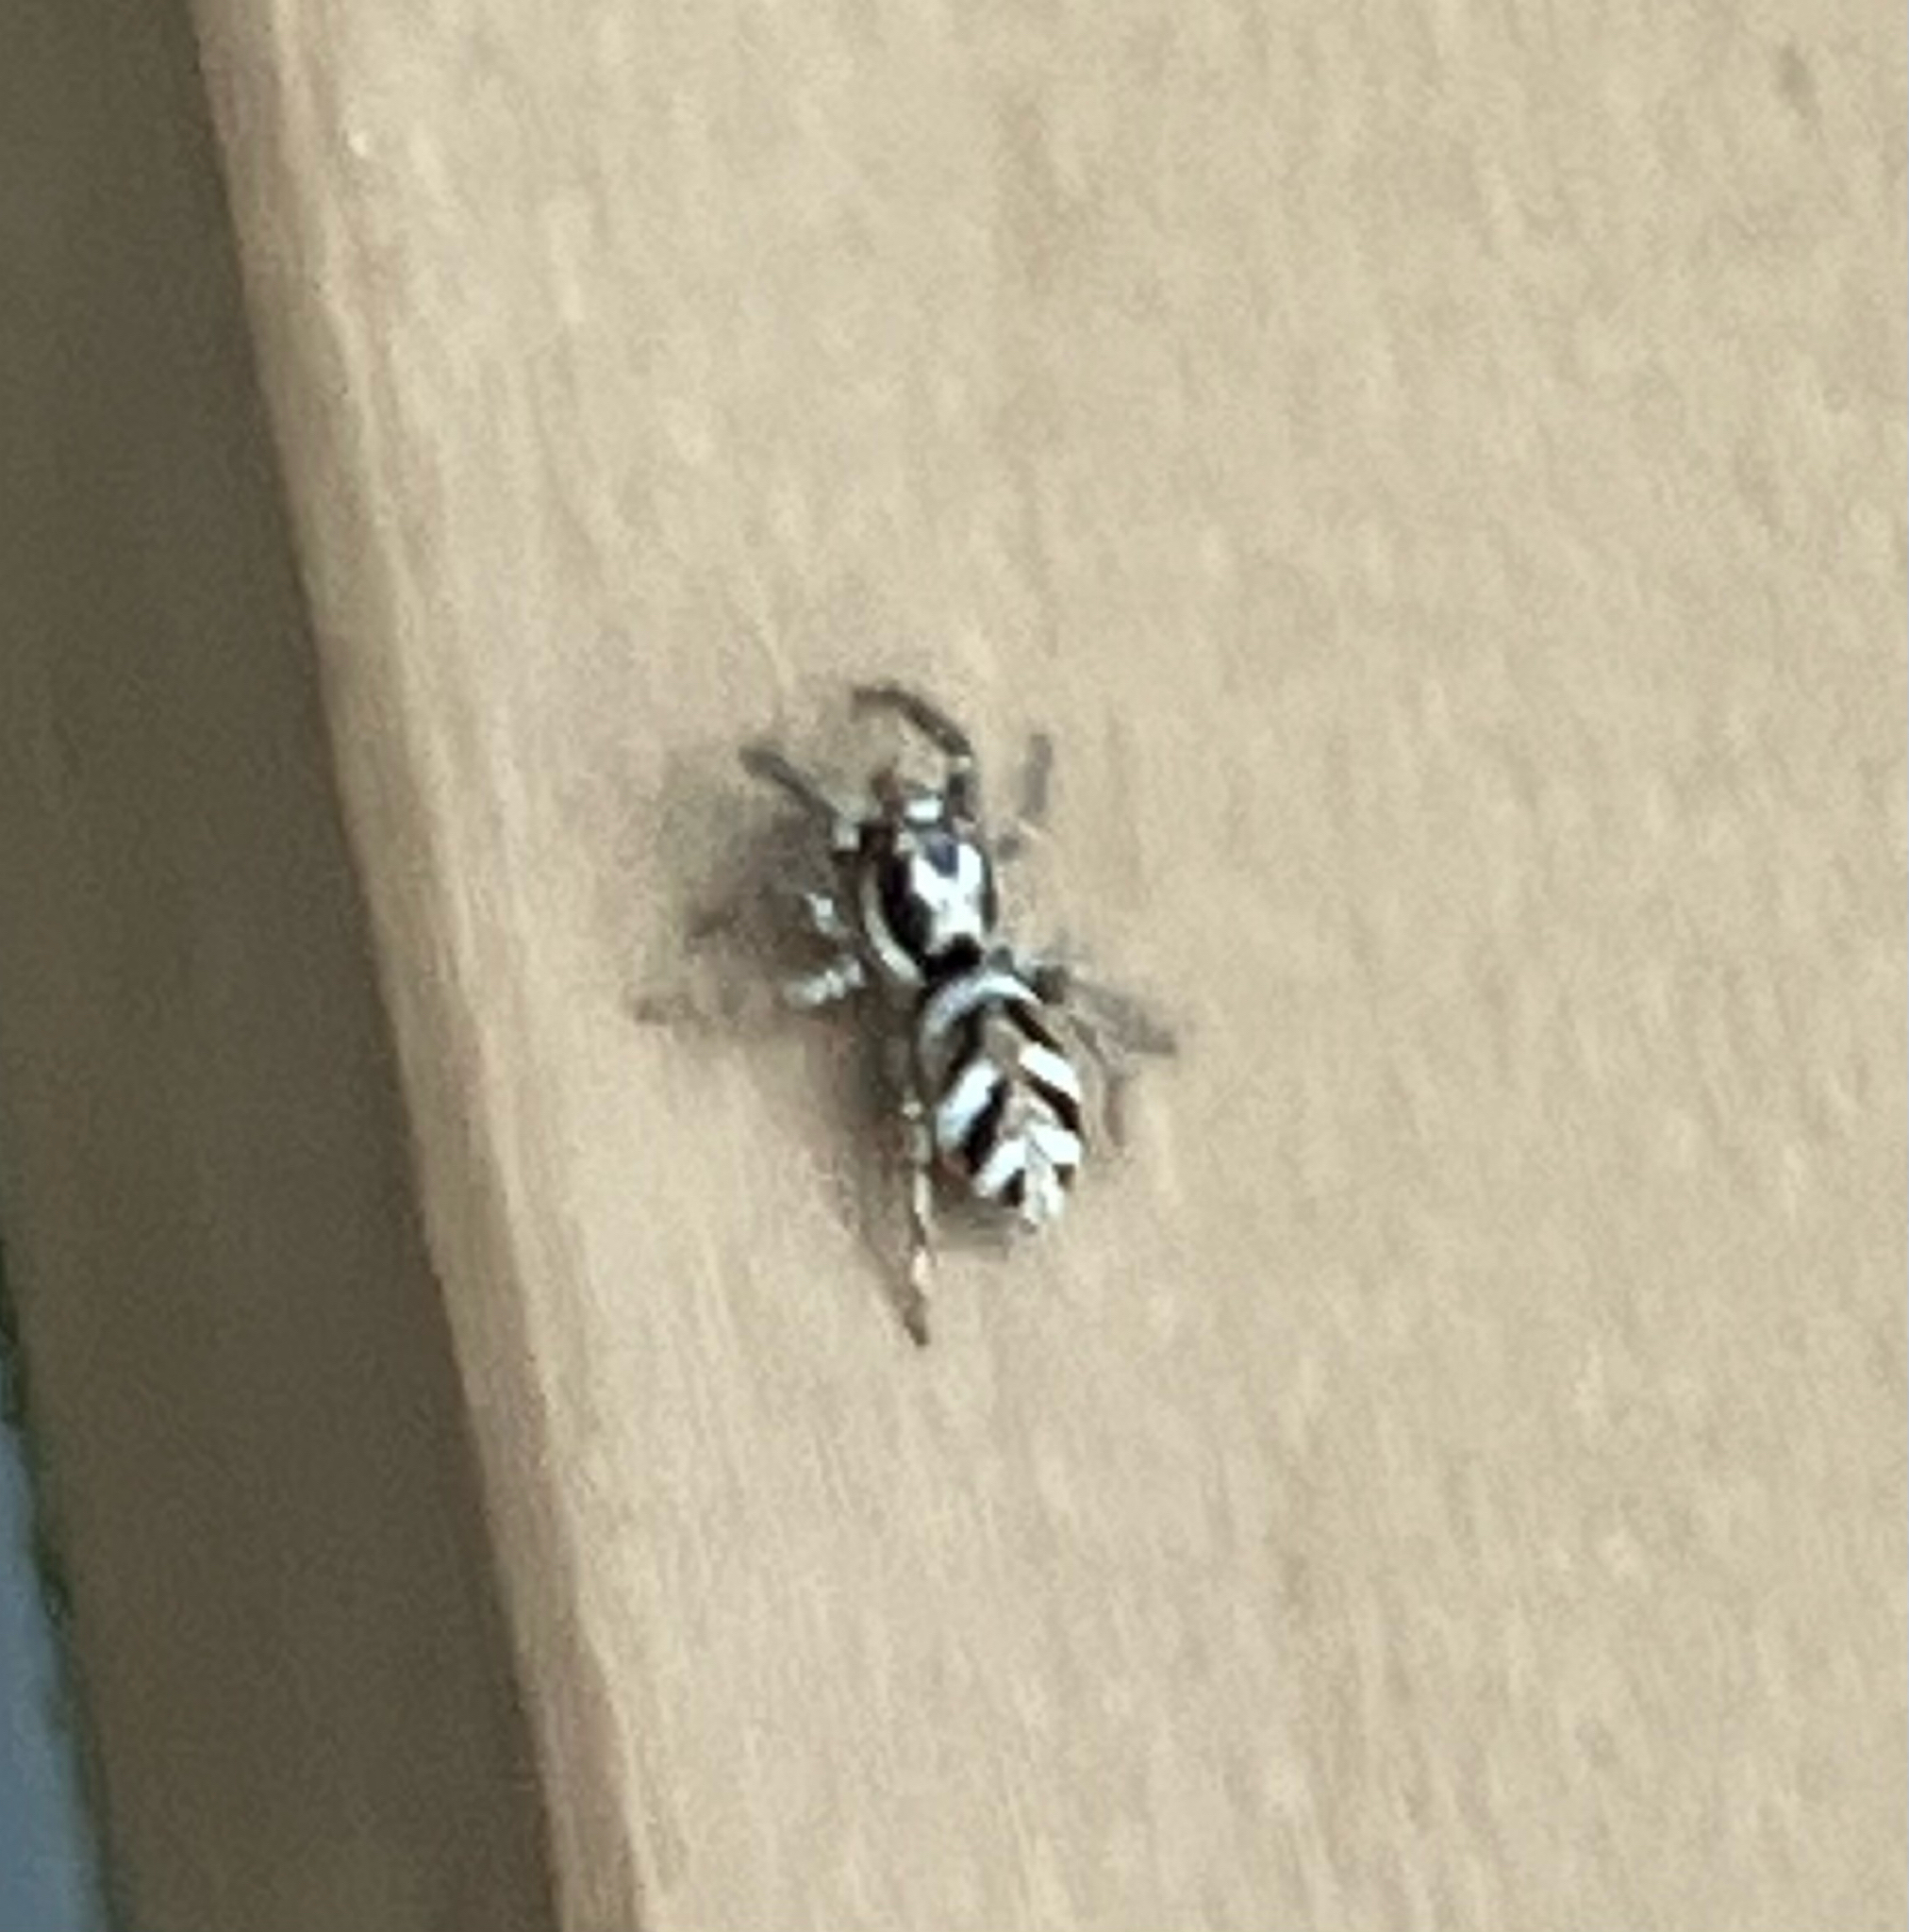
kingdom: Animalia
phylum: Arthropoda
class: Arachnida
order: Araneae
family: Salticidae
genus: Salticus
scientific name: Salticus scenicus
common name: Zebra jumper
